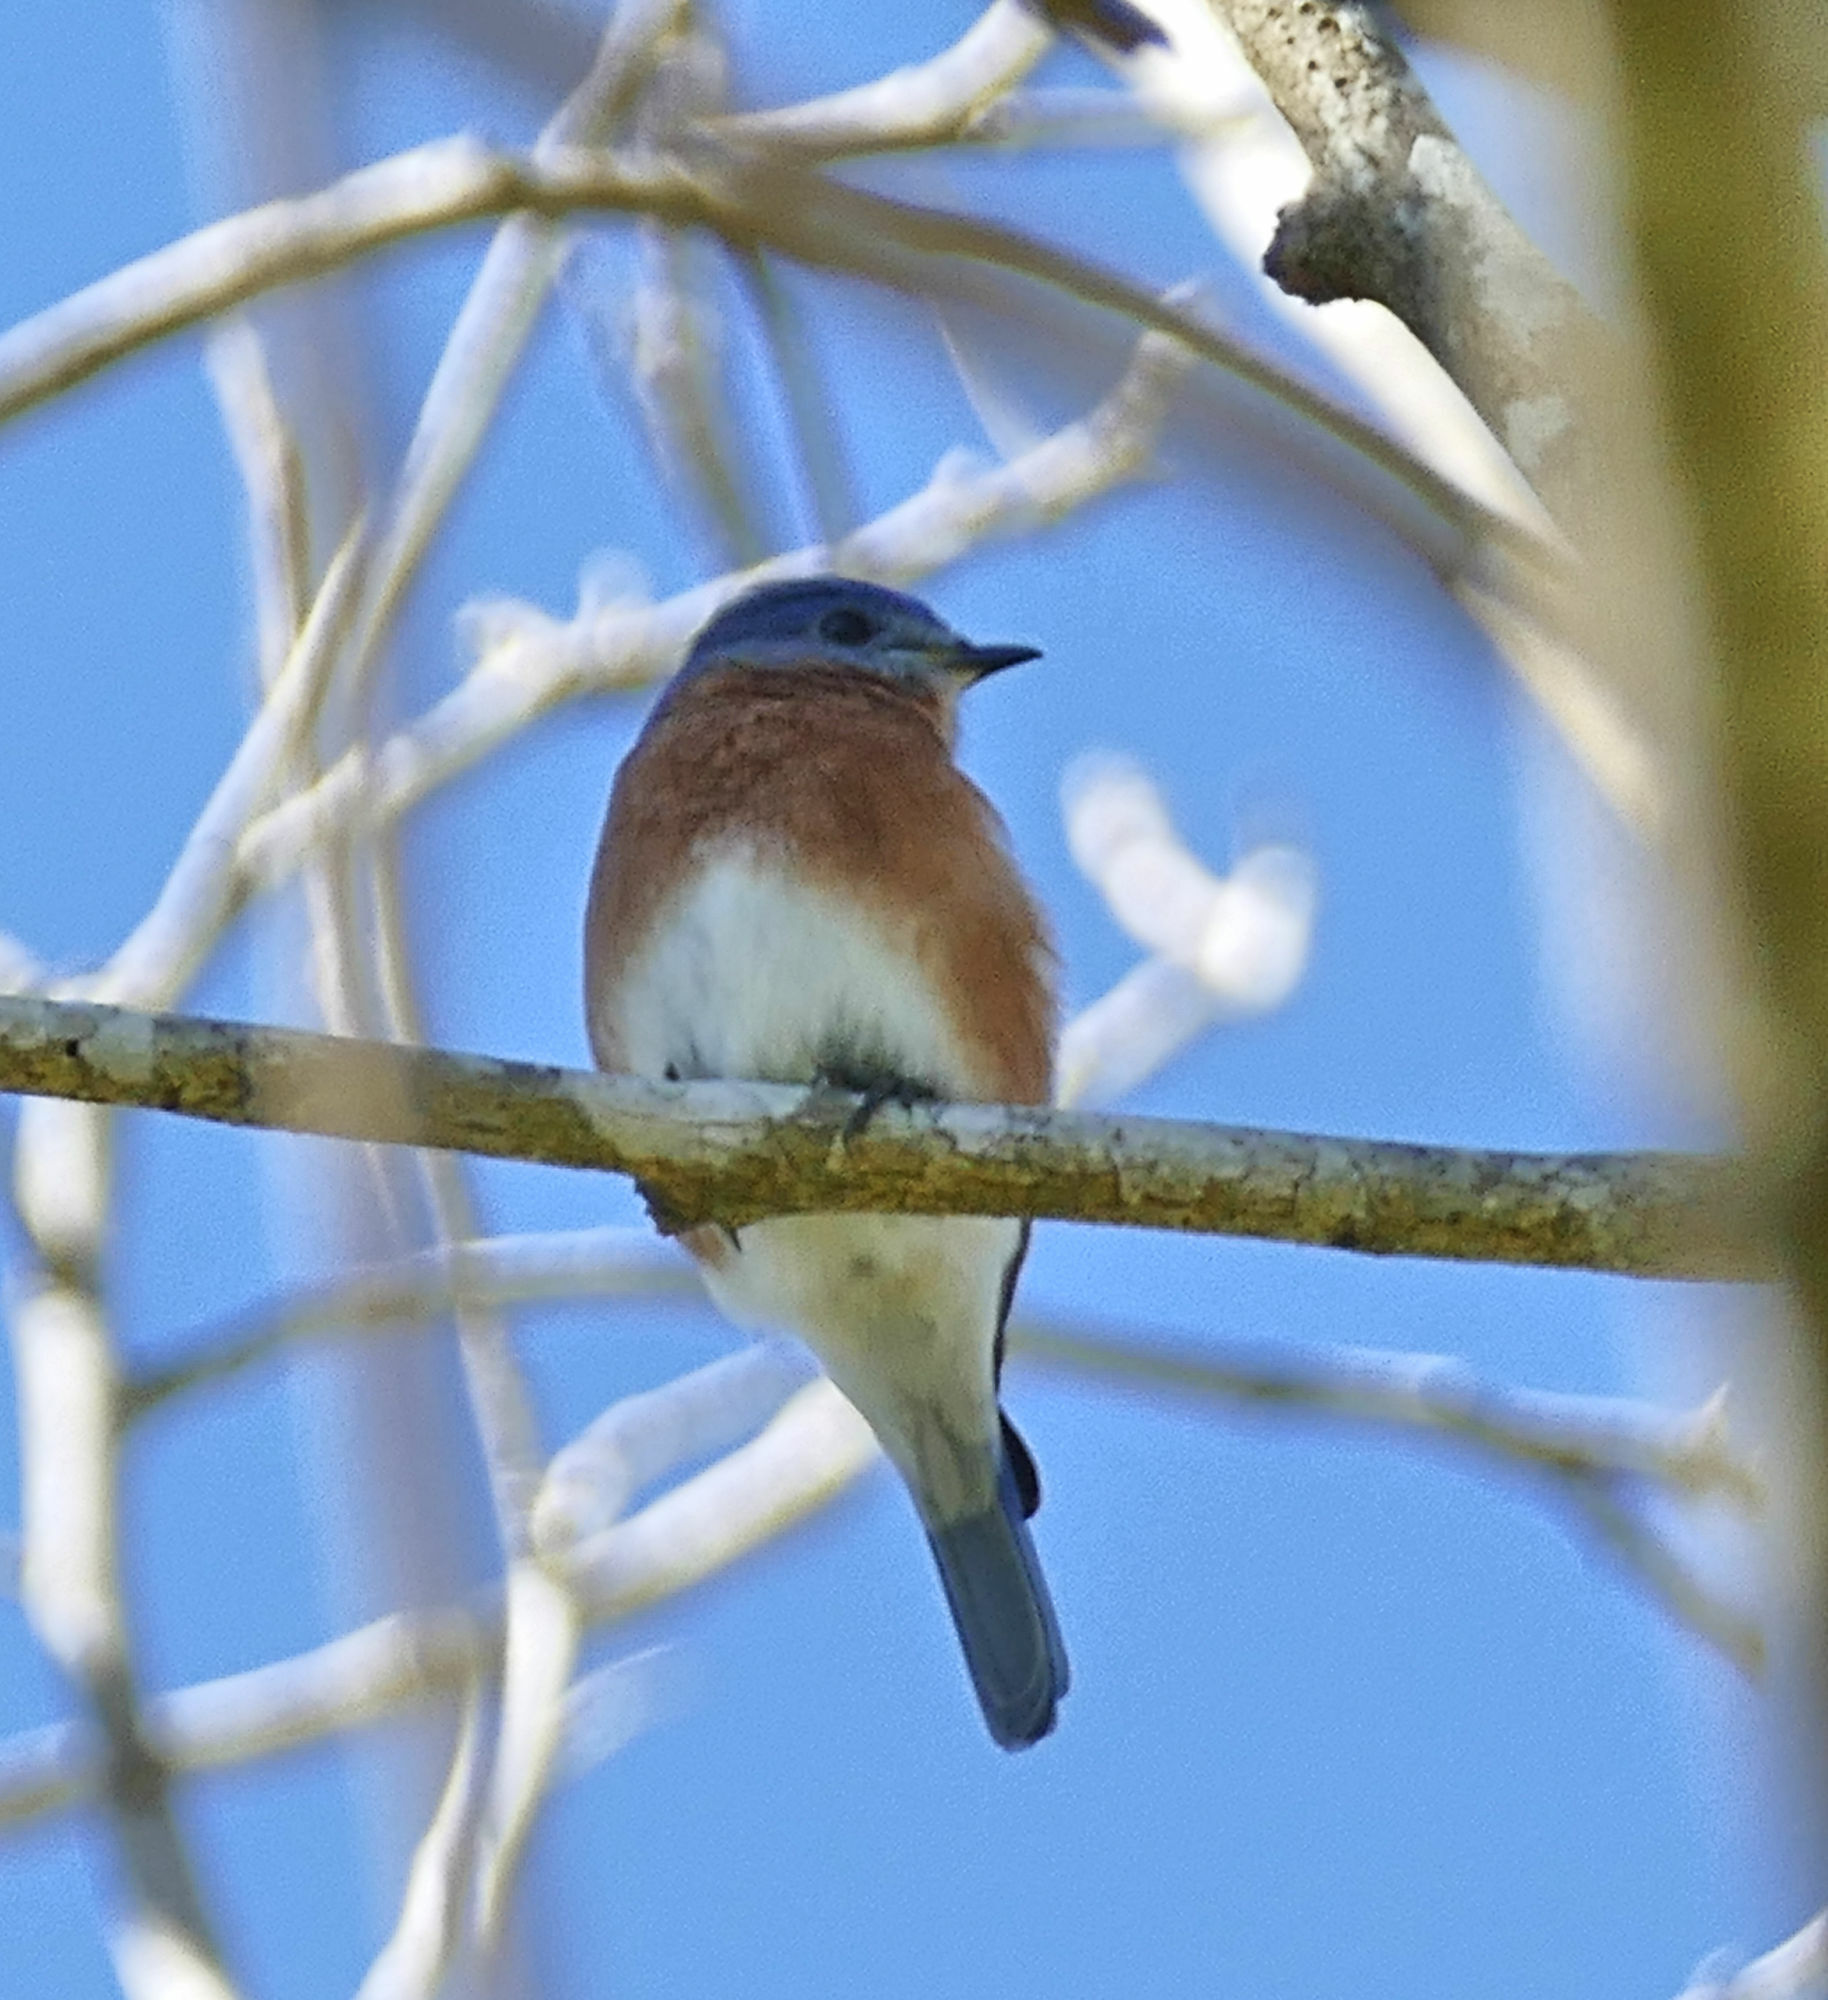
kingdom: Animalia
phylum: Chordata
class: Aves
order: Passeriformes
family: Turdidae
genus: Sialia
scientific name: Sialia sialis
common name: Eastern bluebird
